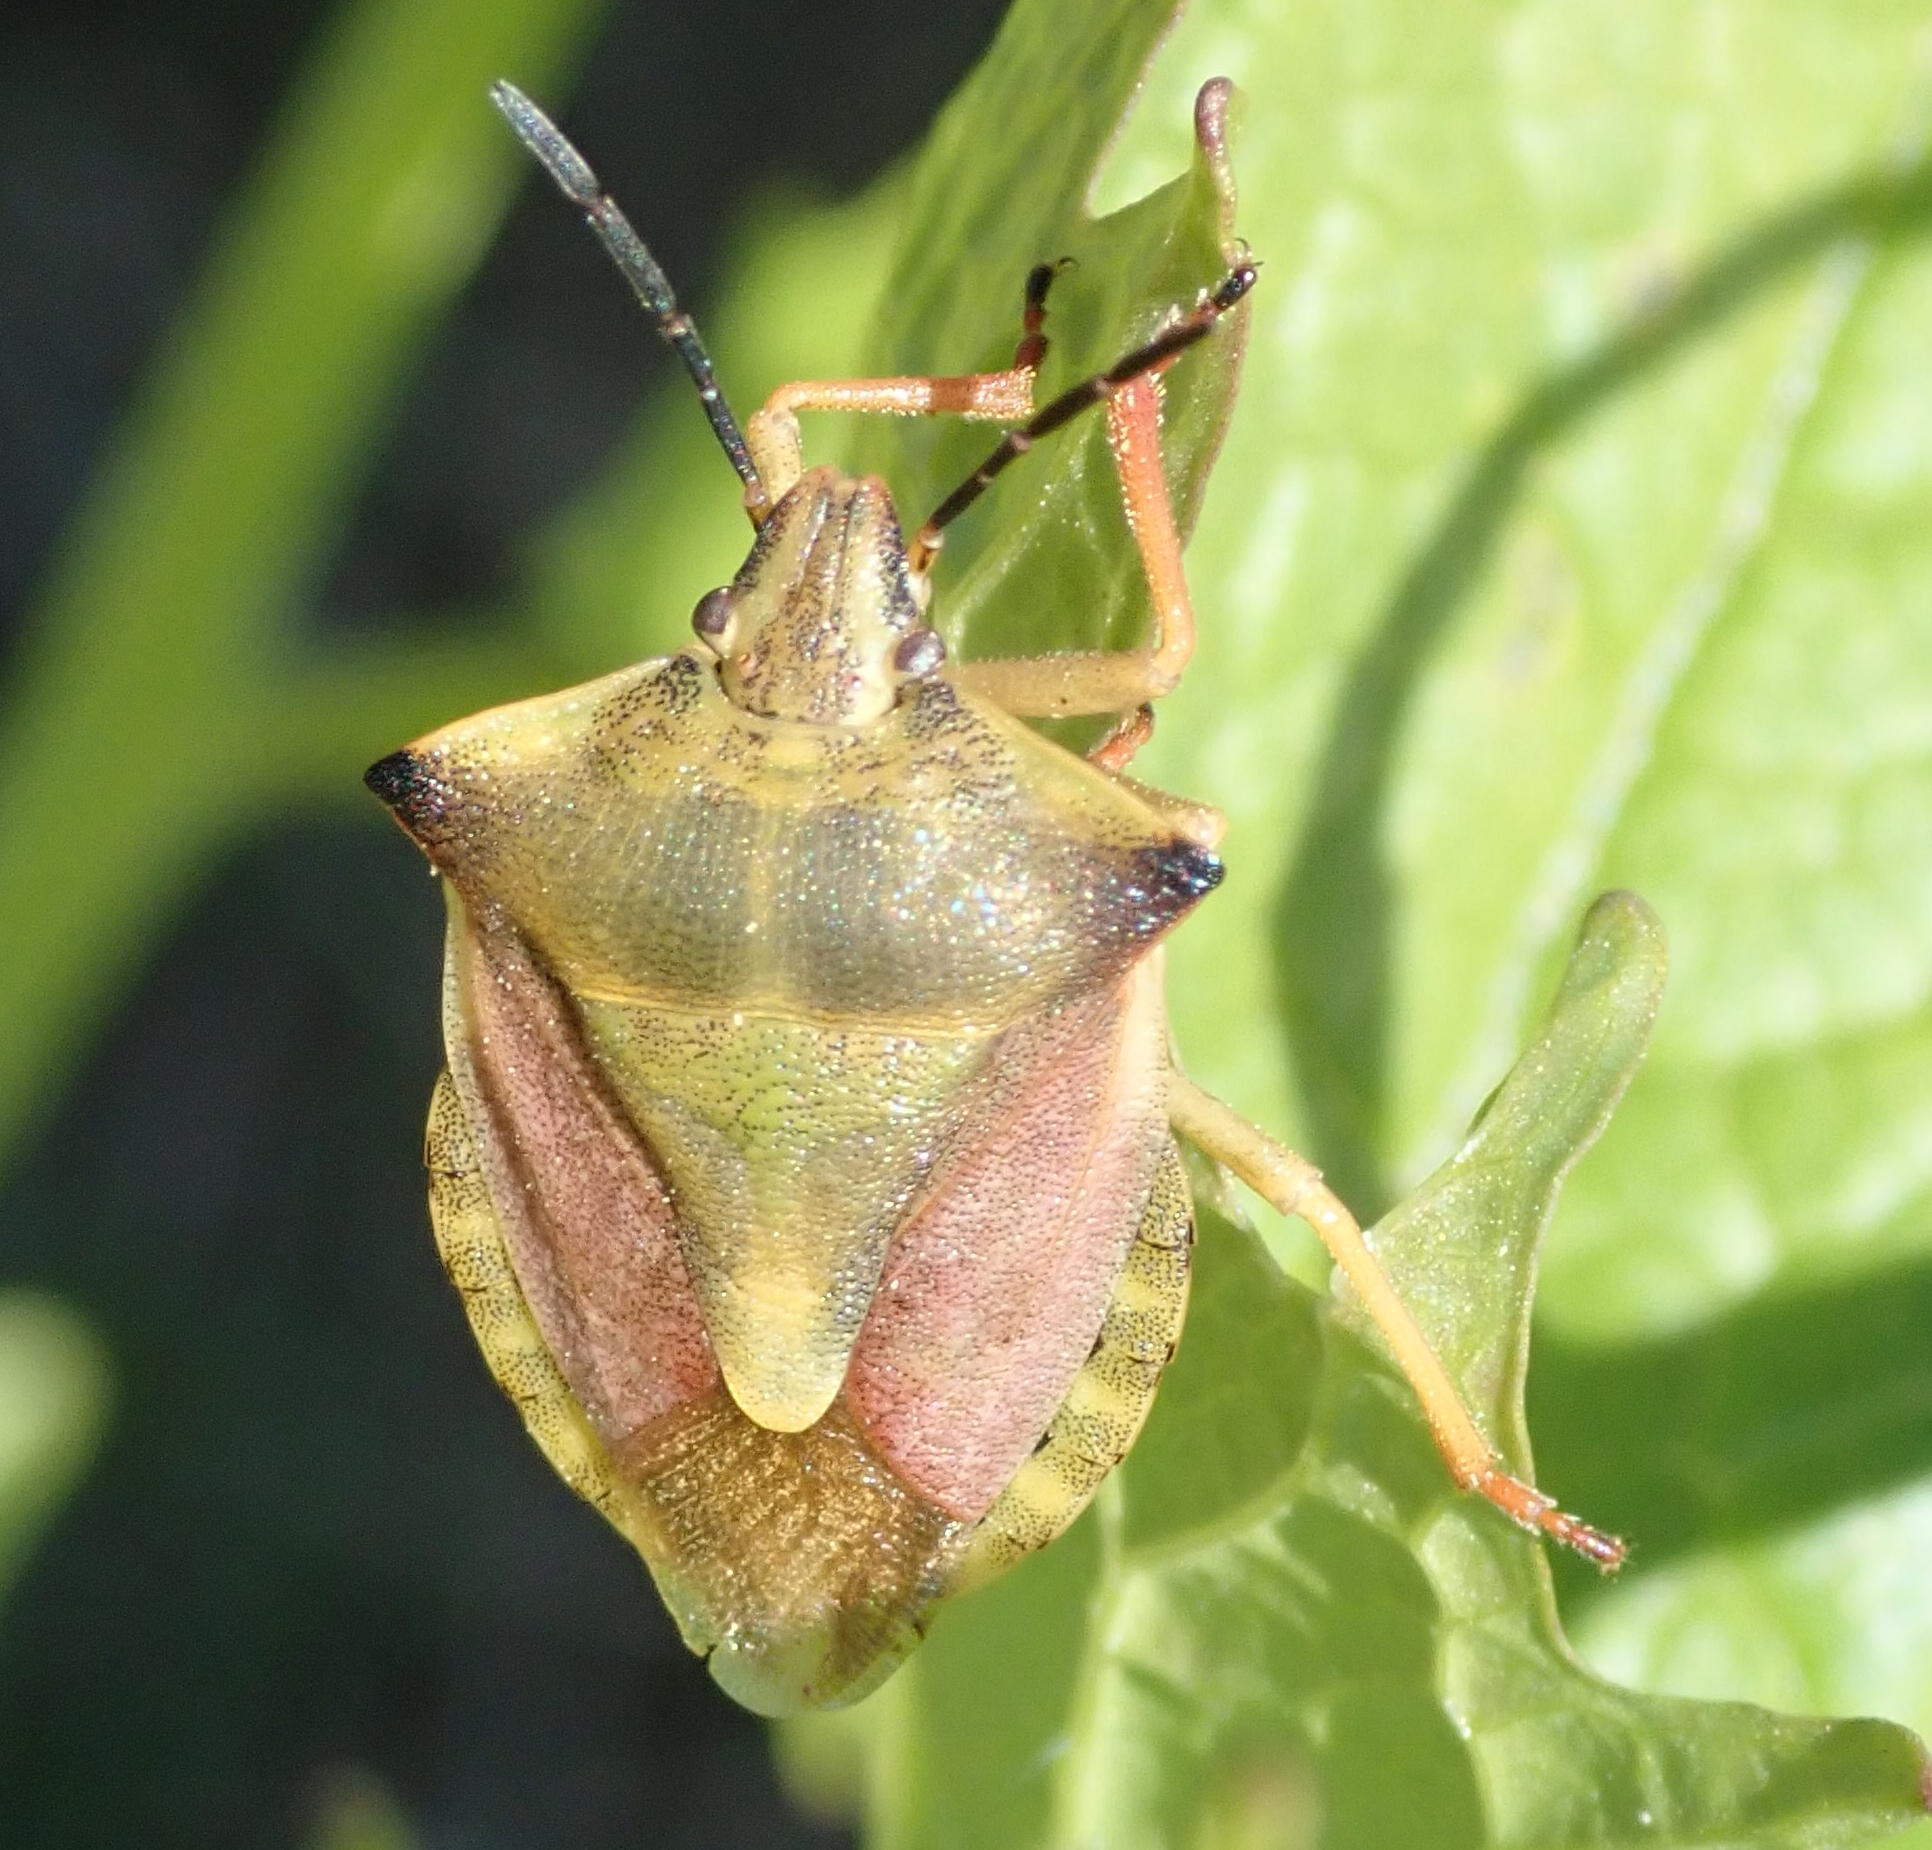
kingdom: Animalia
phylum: Arthropoda
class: Insecta
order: Hemiptera
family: Pentatomidae
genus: Carpocoris
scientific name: Carpocoris fuscispinus
